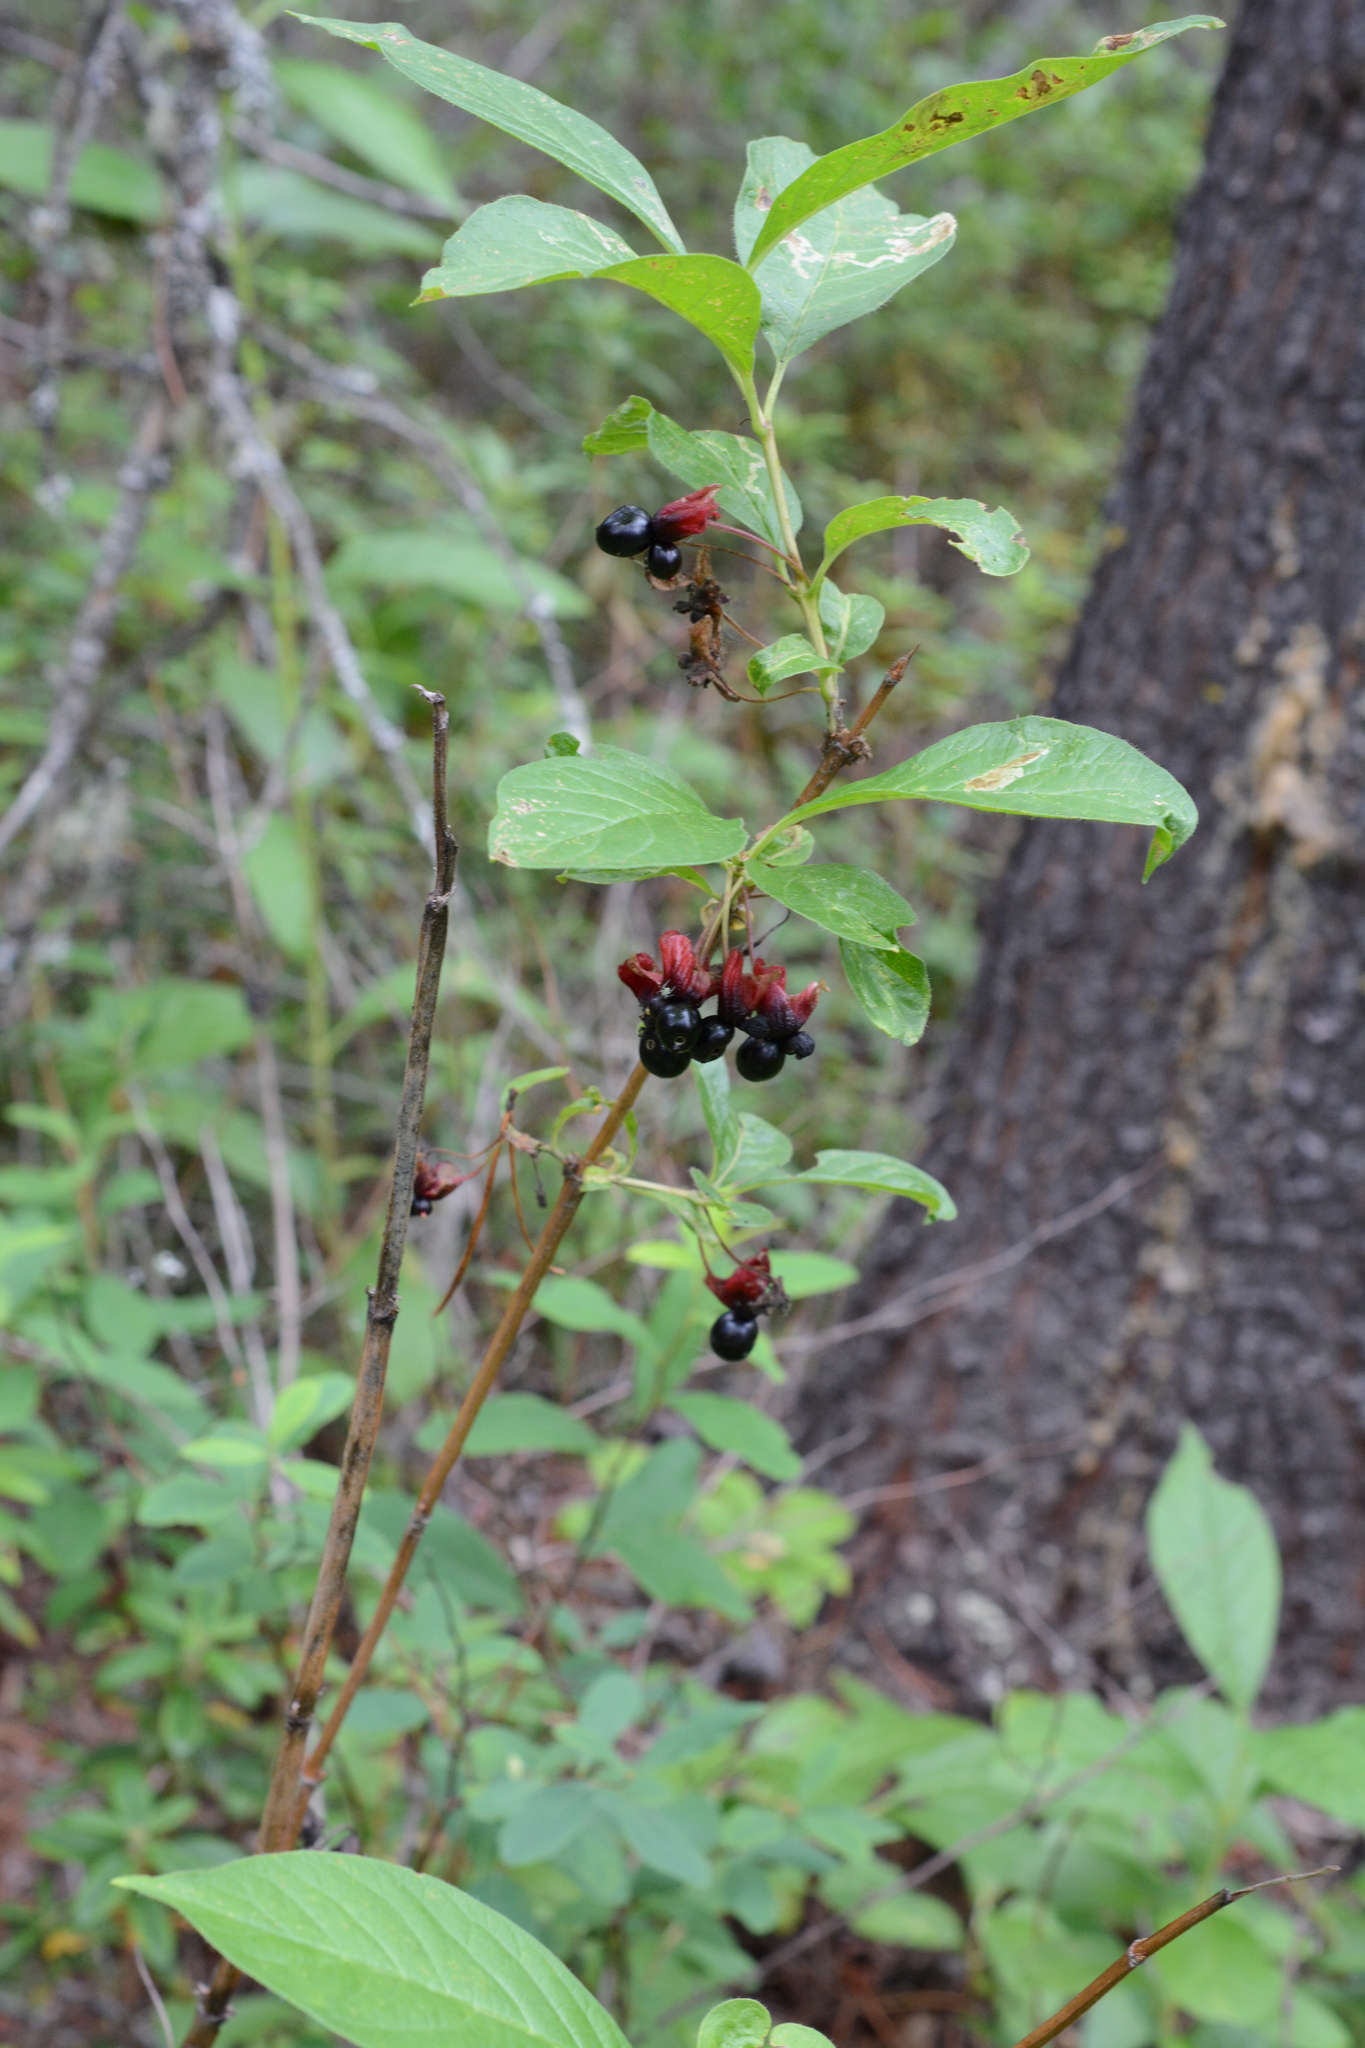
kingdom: Plantae
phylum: Tracheophyta
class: Magnoliopsida
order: Dipsacales
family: Caprifoliaceae
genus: Lonicera
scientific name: Lonicera involucrata
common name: Californian honeysuckle
